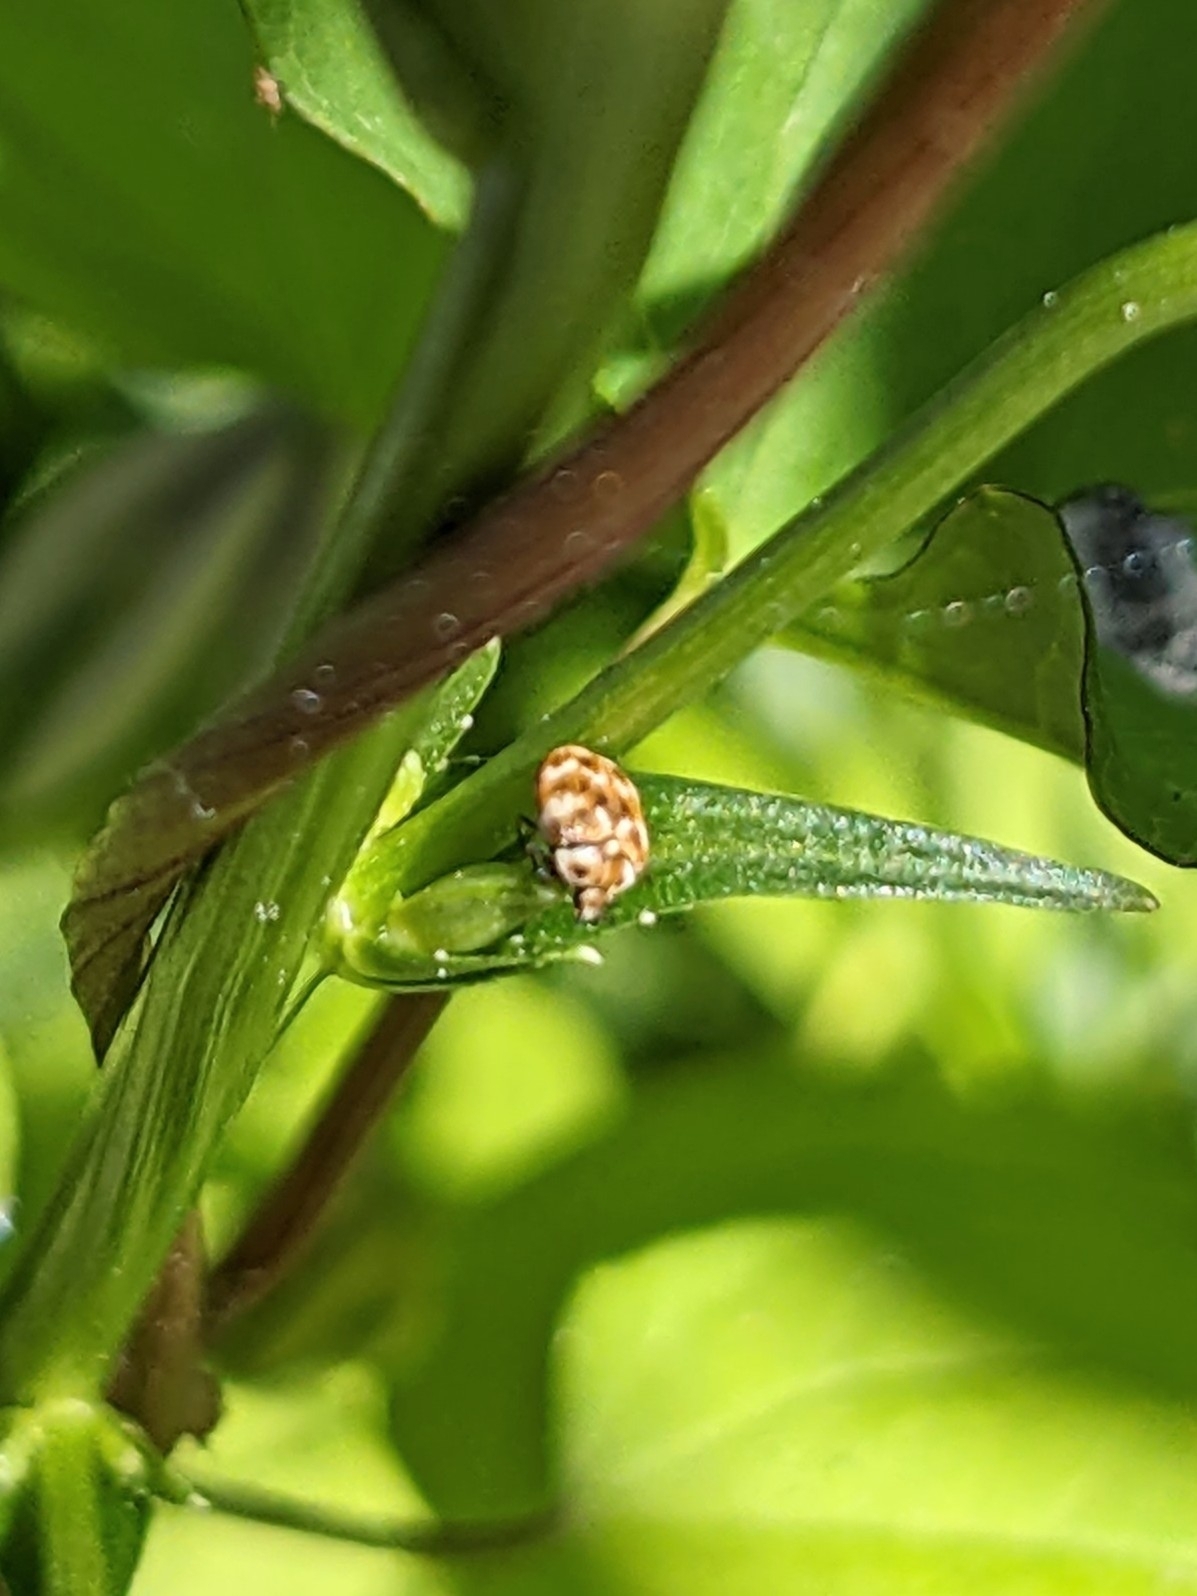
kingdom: Animalia
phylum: Arthropoda
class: Insecta
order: Coleoptera
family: Dermestidae
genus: Anthrenus
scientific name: Anthrenus verbasci
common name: Varied carpet beetle
